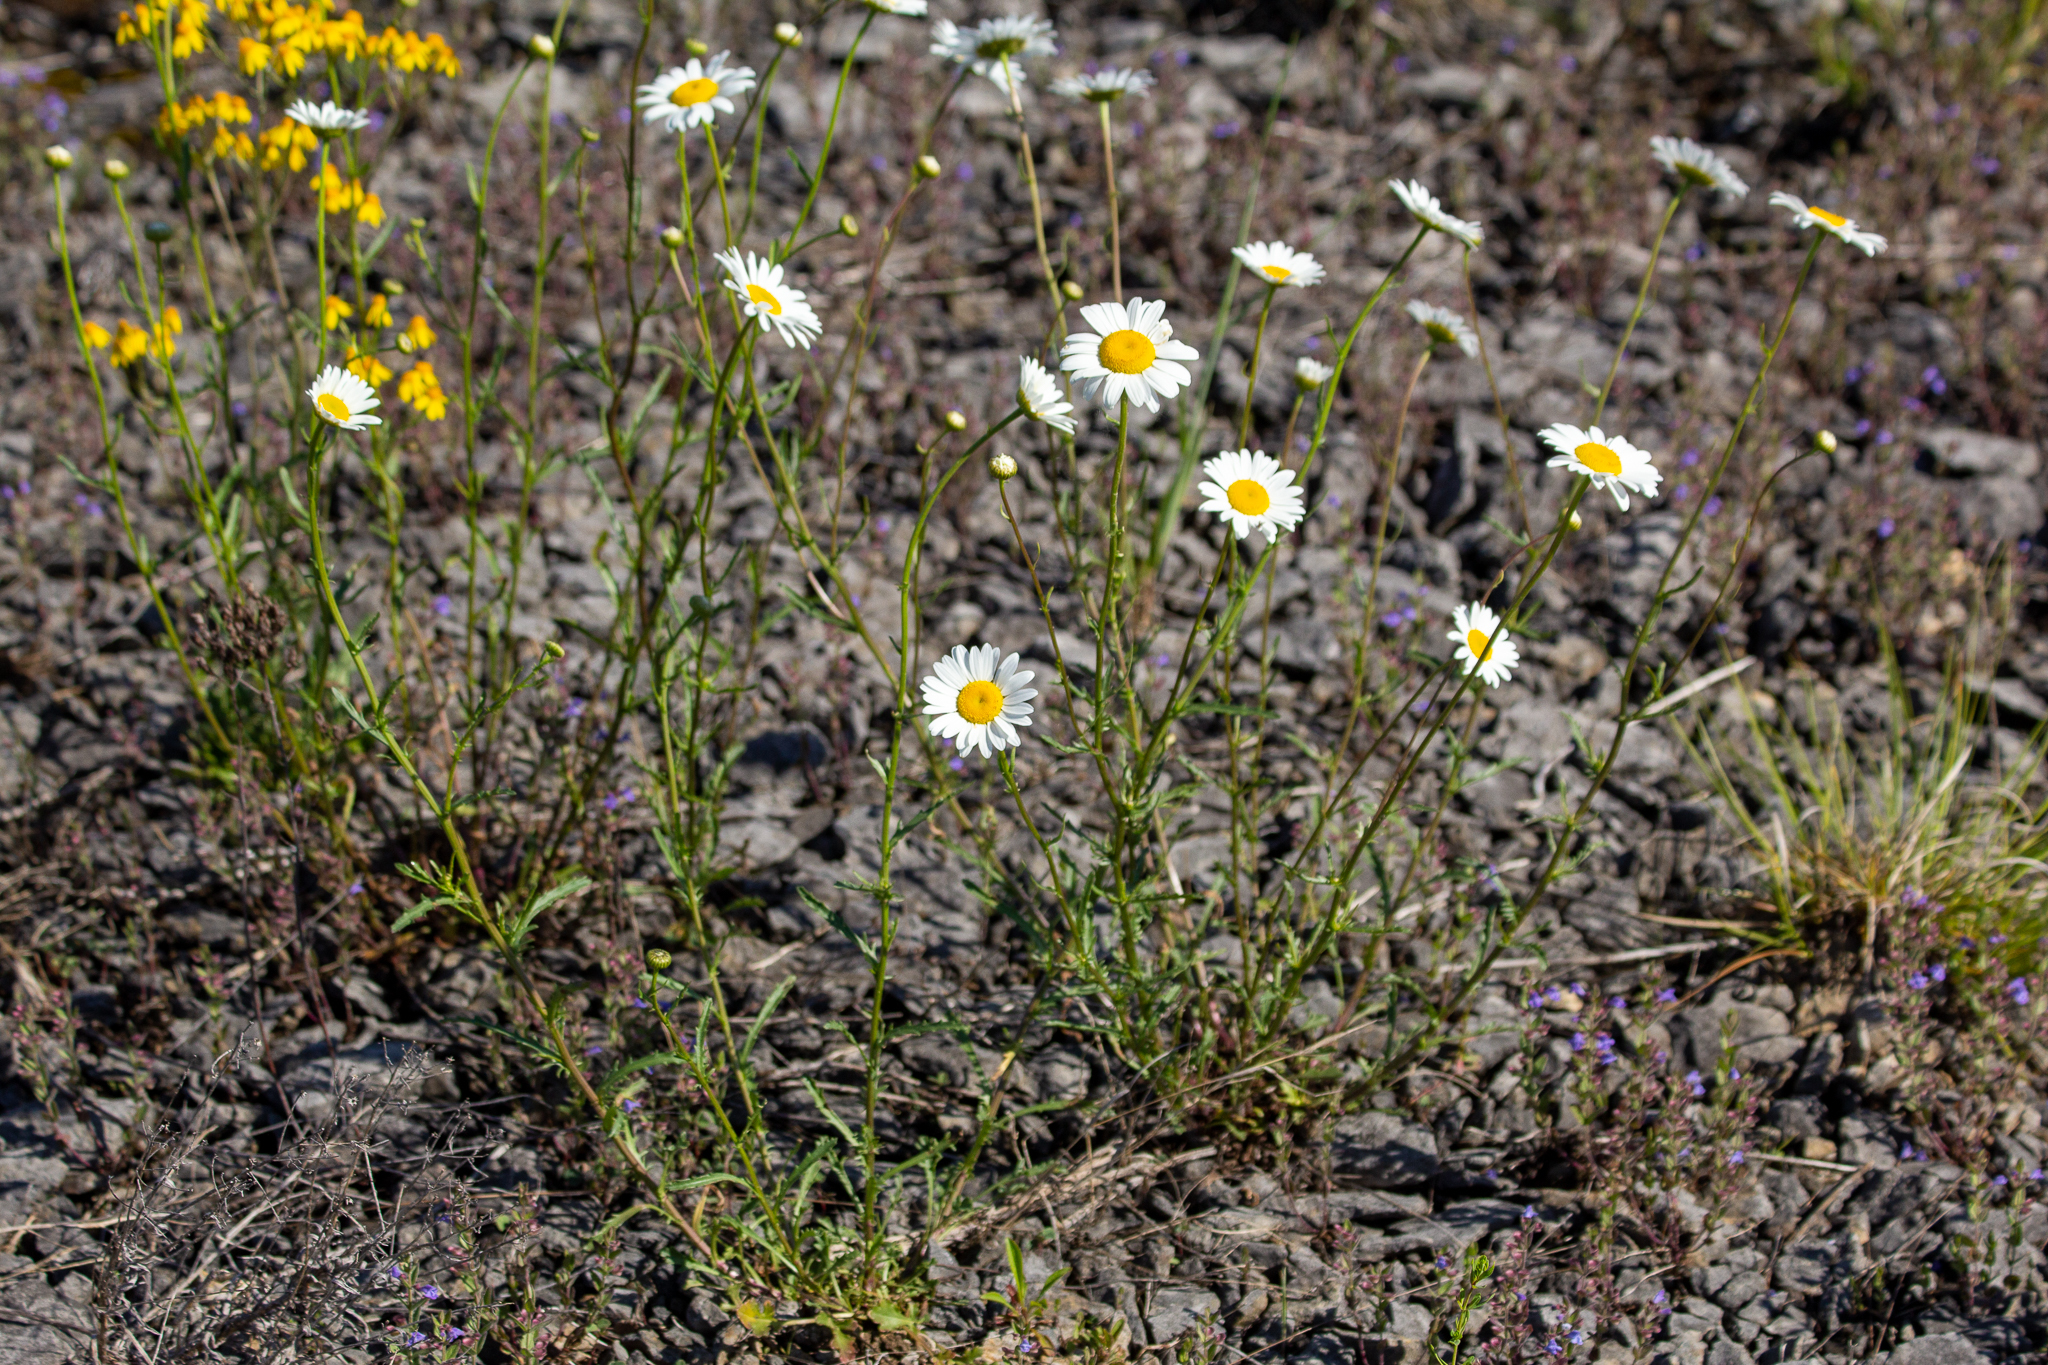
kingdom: Plantae
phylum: Tracheophyta
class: Magnoliopsida
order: Asterales
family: Asteraceae
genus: Leucanthemum
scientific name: Leucanthemum vulgare
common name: Oxeye daisy
